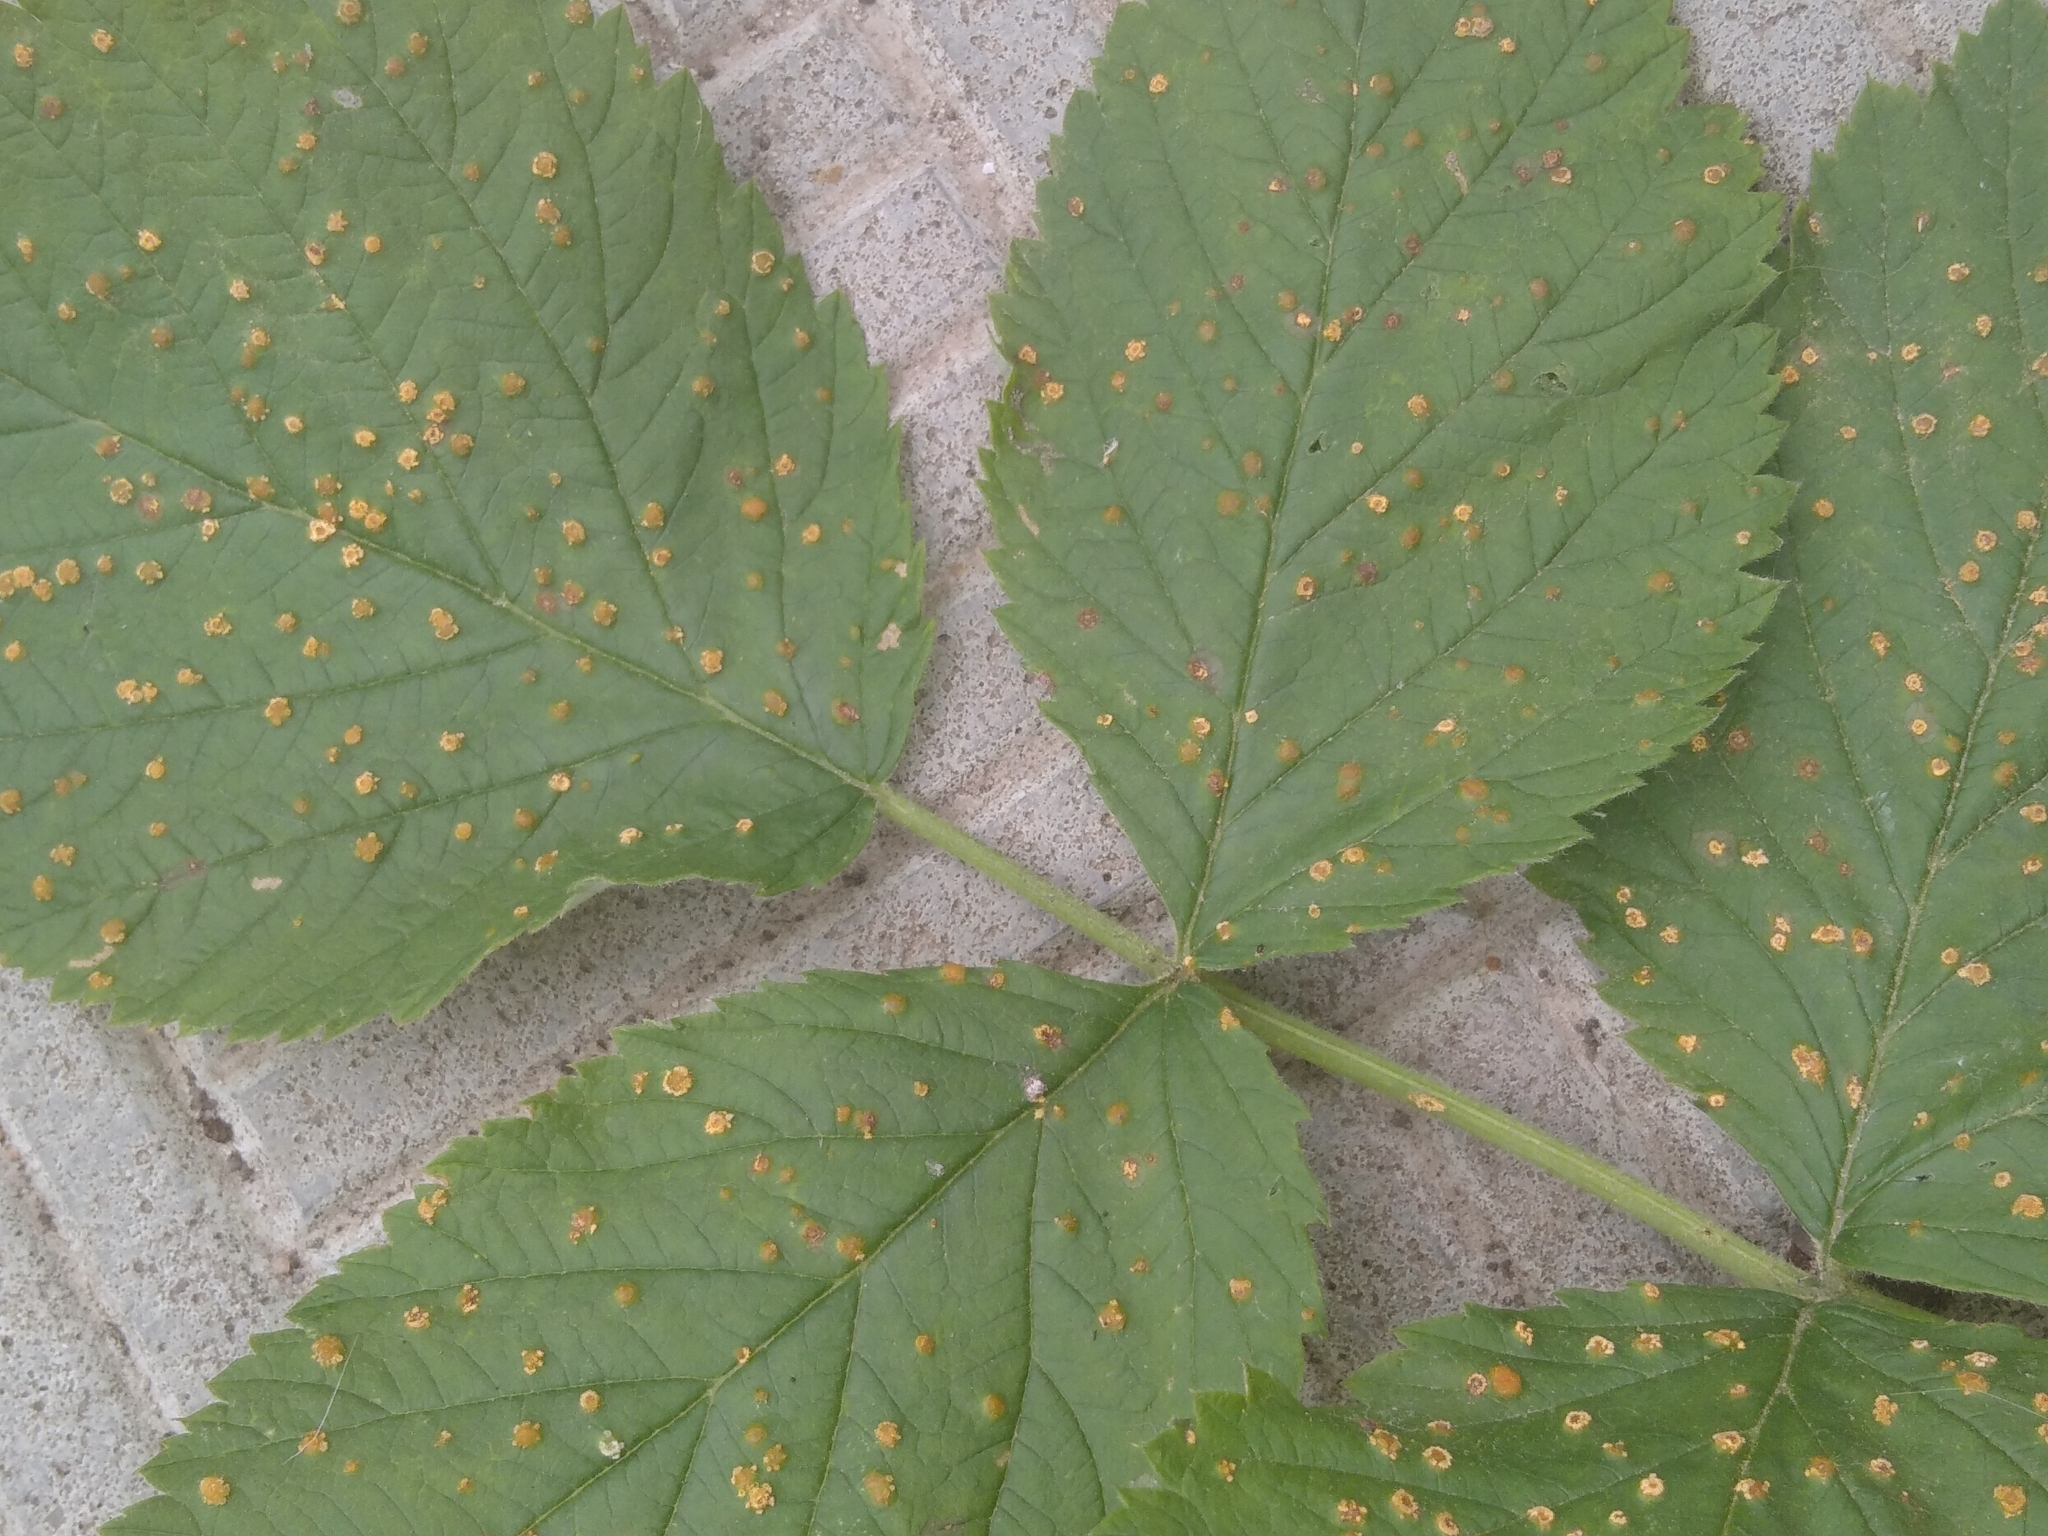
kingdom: Fungi
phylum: Basidiomycota
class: Pucciniomycetes
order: Pucciniales
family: Phragmidiaceae
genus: Phragmidium
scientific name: Phragmidium rubi-idaei
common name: Raspberry rust
